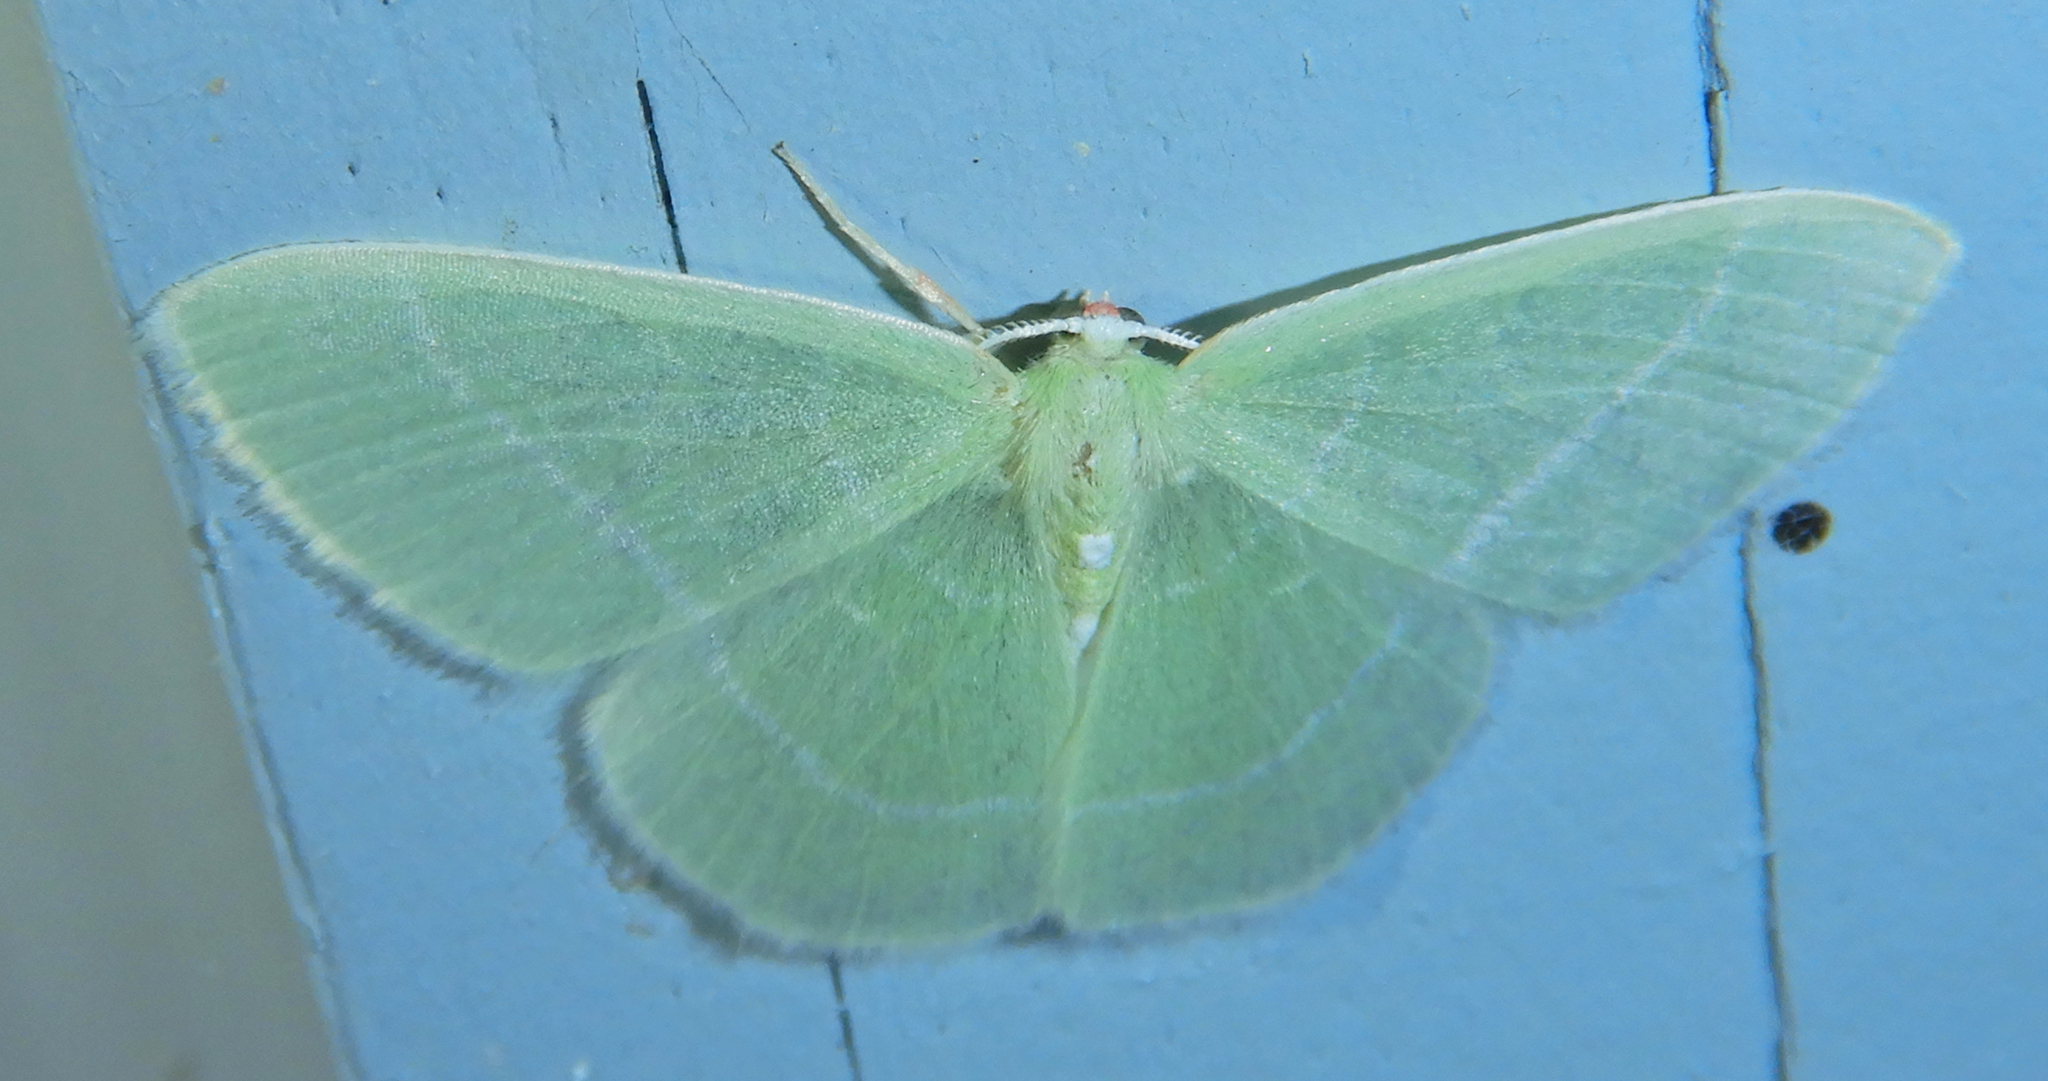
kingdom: Animalia
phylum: Arthropoda
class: Insecta
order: Lepidoptera
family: Geometridae
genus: Nemoria
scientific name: Nemoria mimosaria
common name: White-fringed emerald
